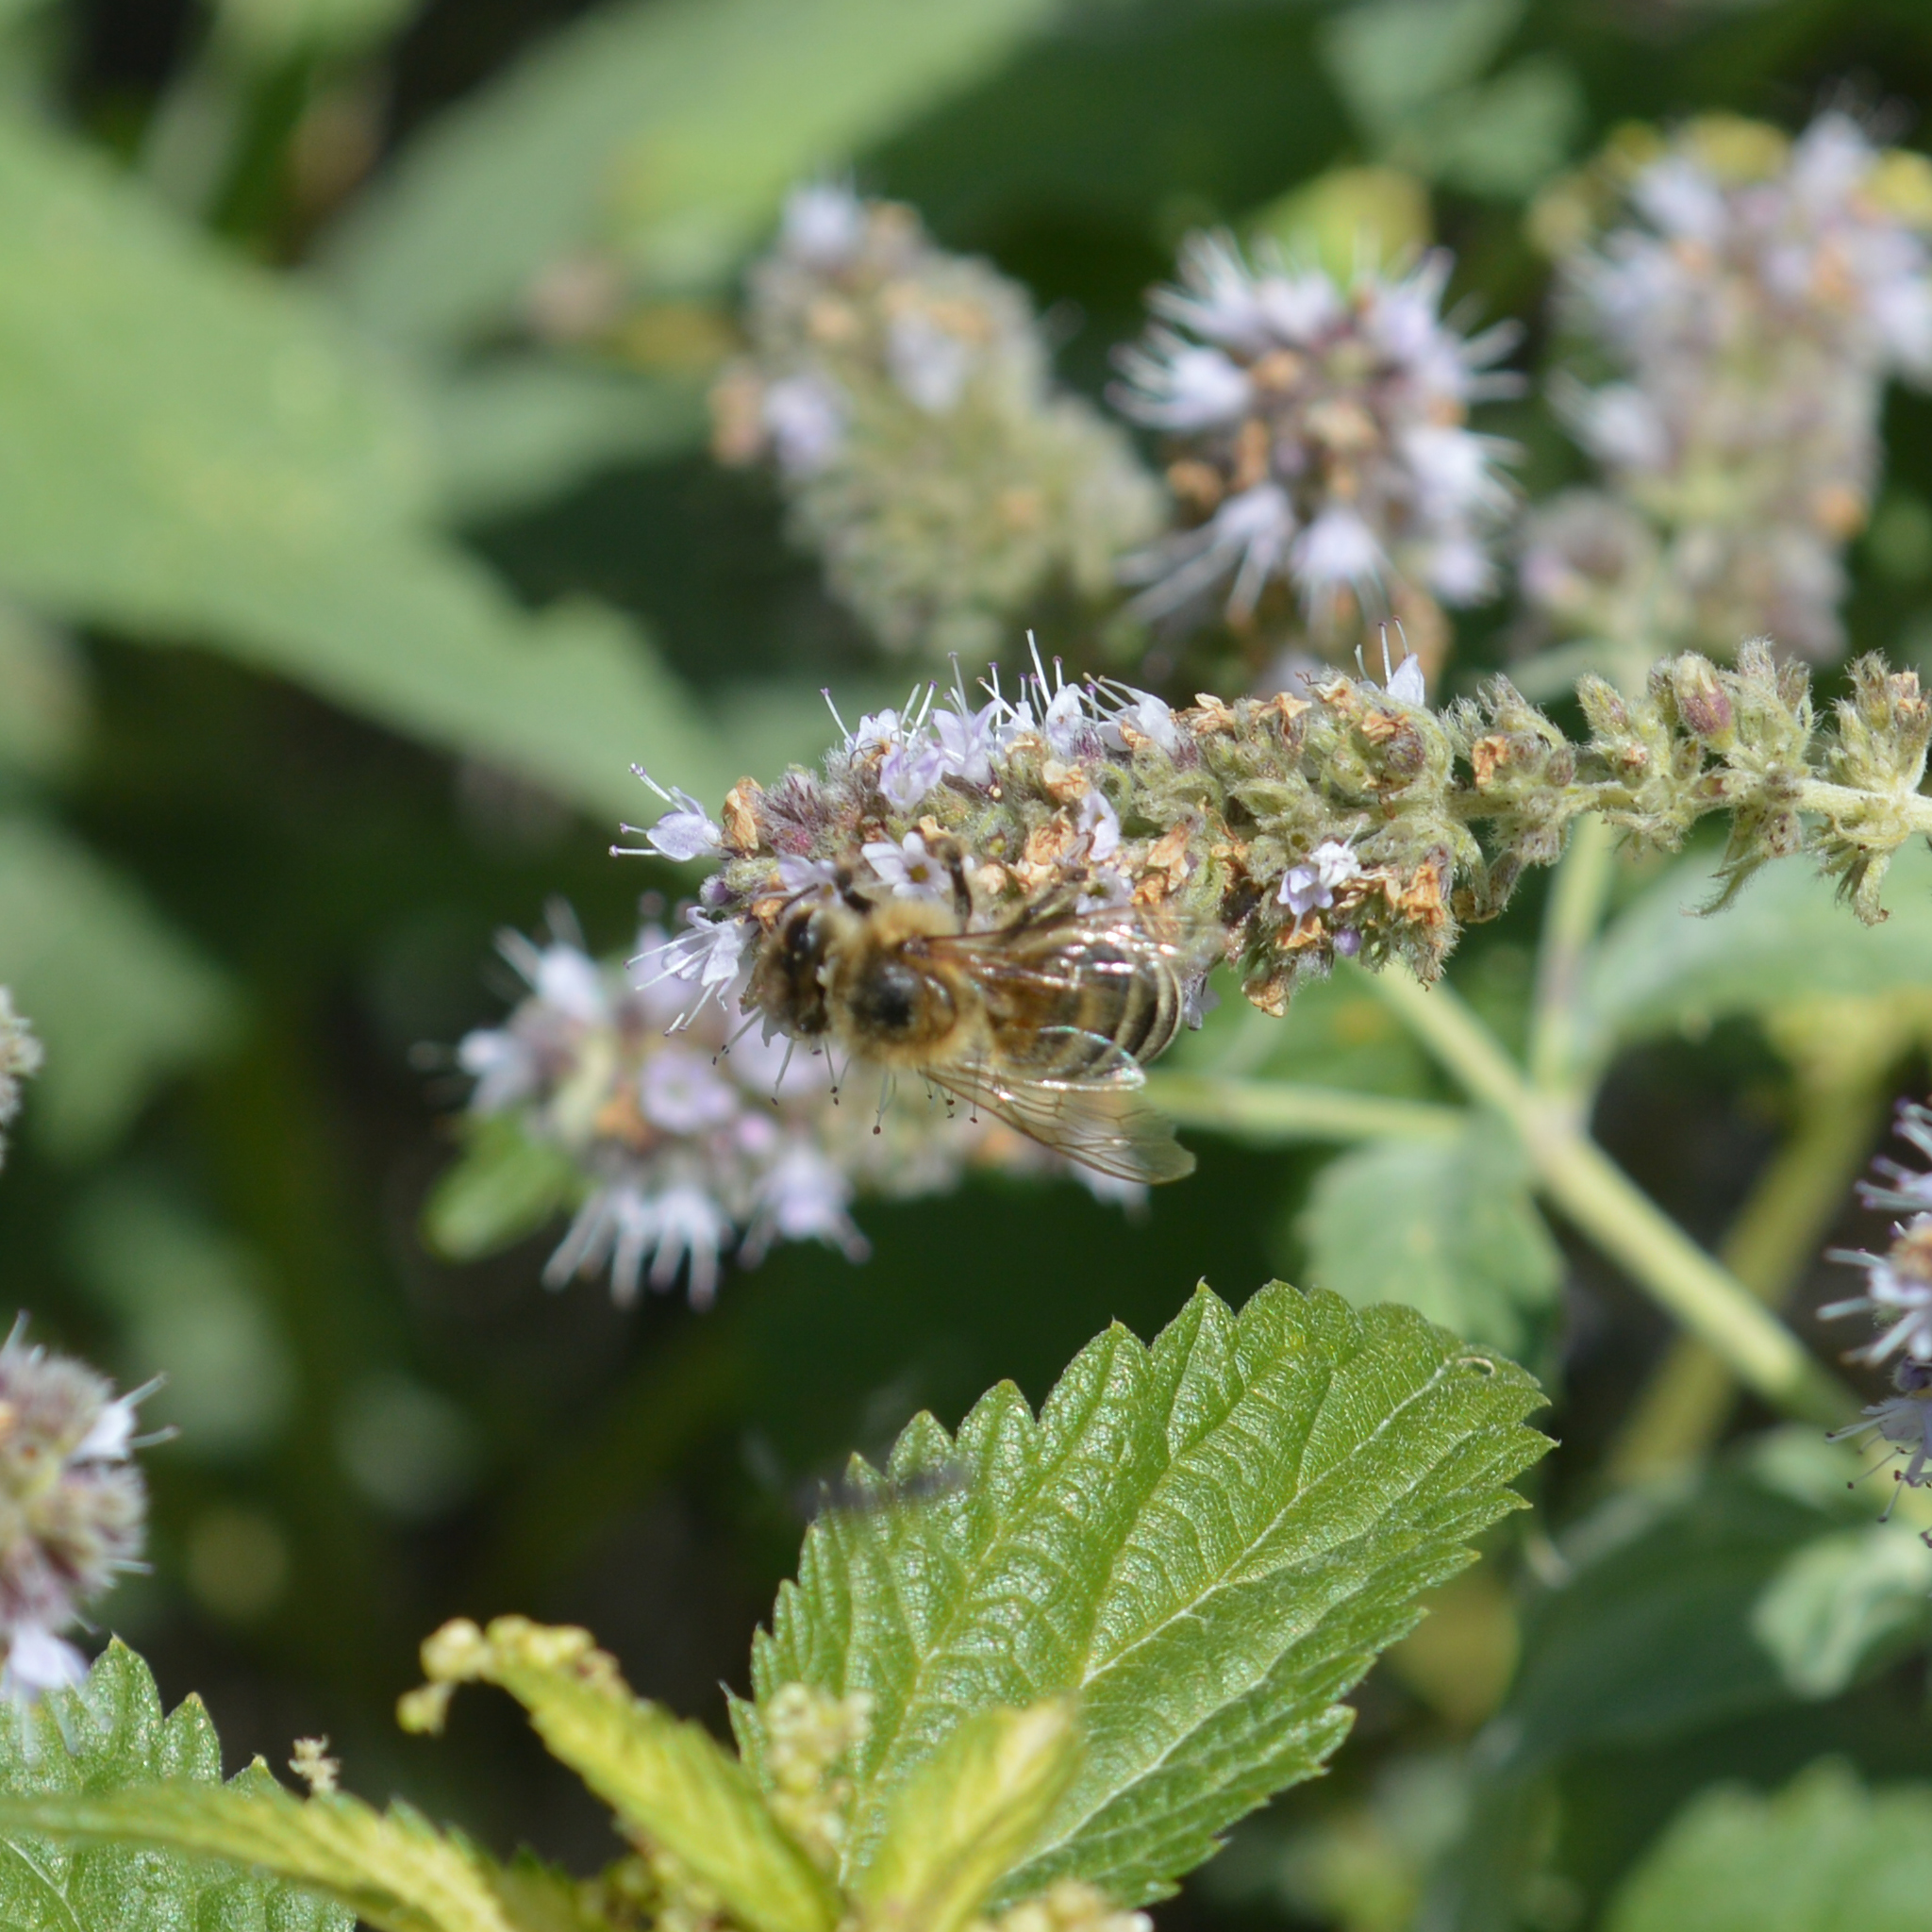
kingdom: Animalia
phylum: Arthropoda
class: Insecta
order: Hymenoptera
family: Apidae
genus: Apis
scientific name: Apis mellifera
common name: Honey bee
